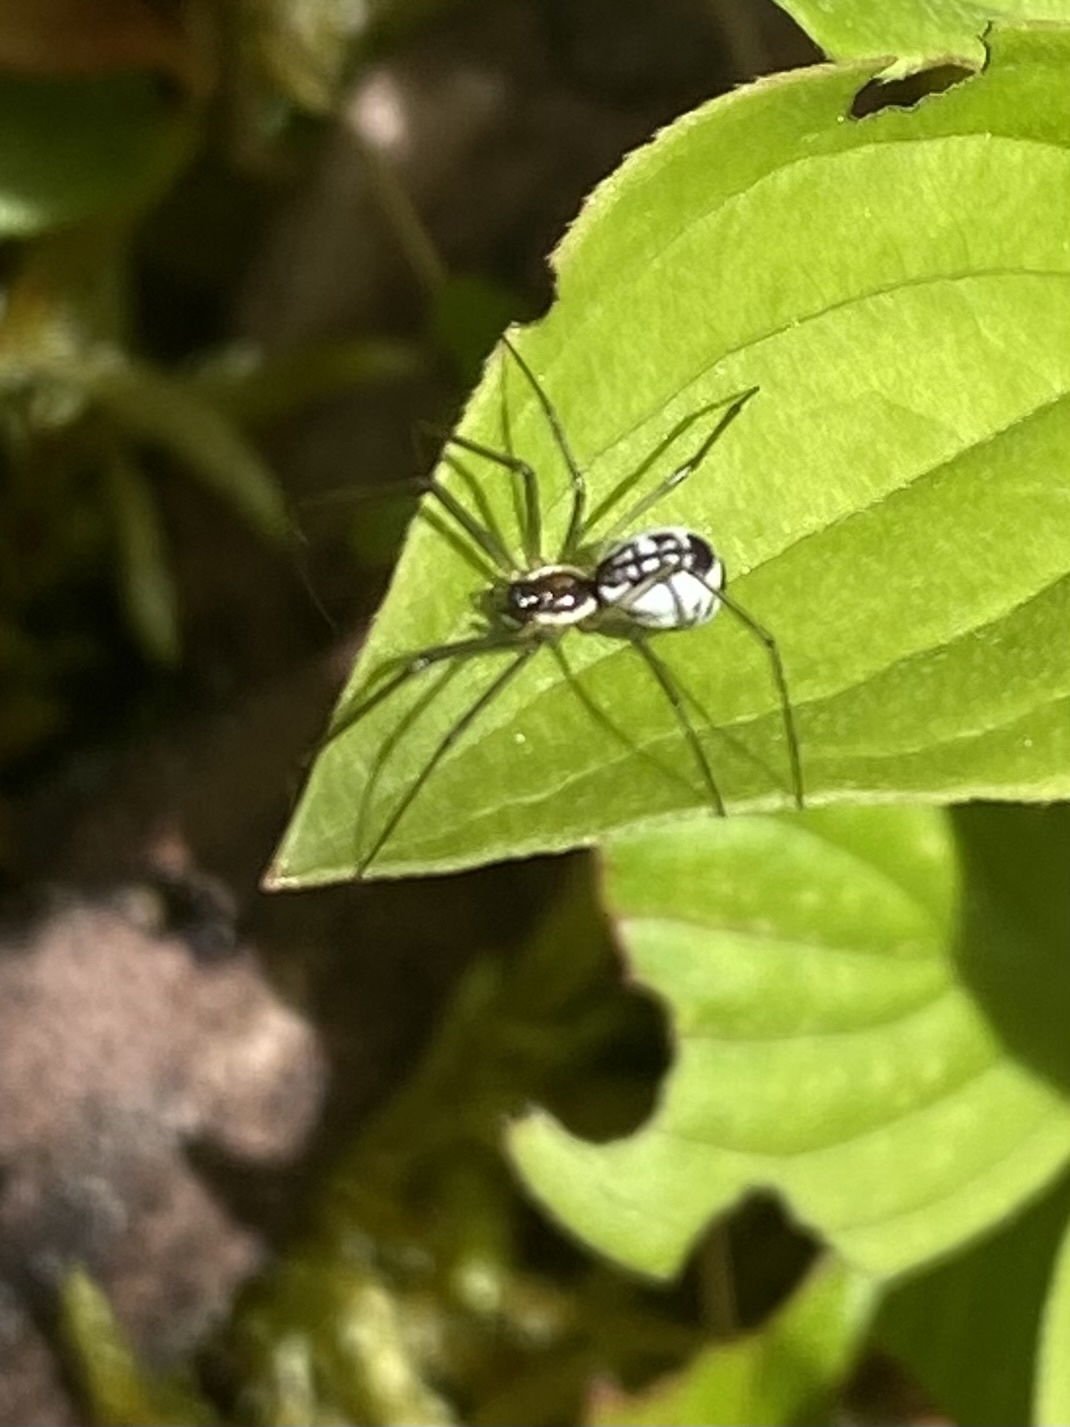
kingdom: Animalia
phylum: Arthropoda
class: Arachnida
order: Araneae
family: Linyphiidae
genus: Neriene
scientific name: Neriene radiata
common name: Filmy dome spider
